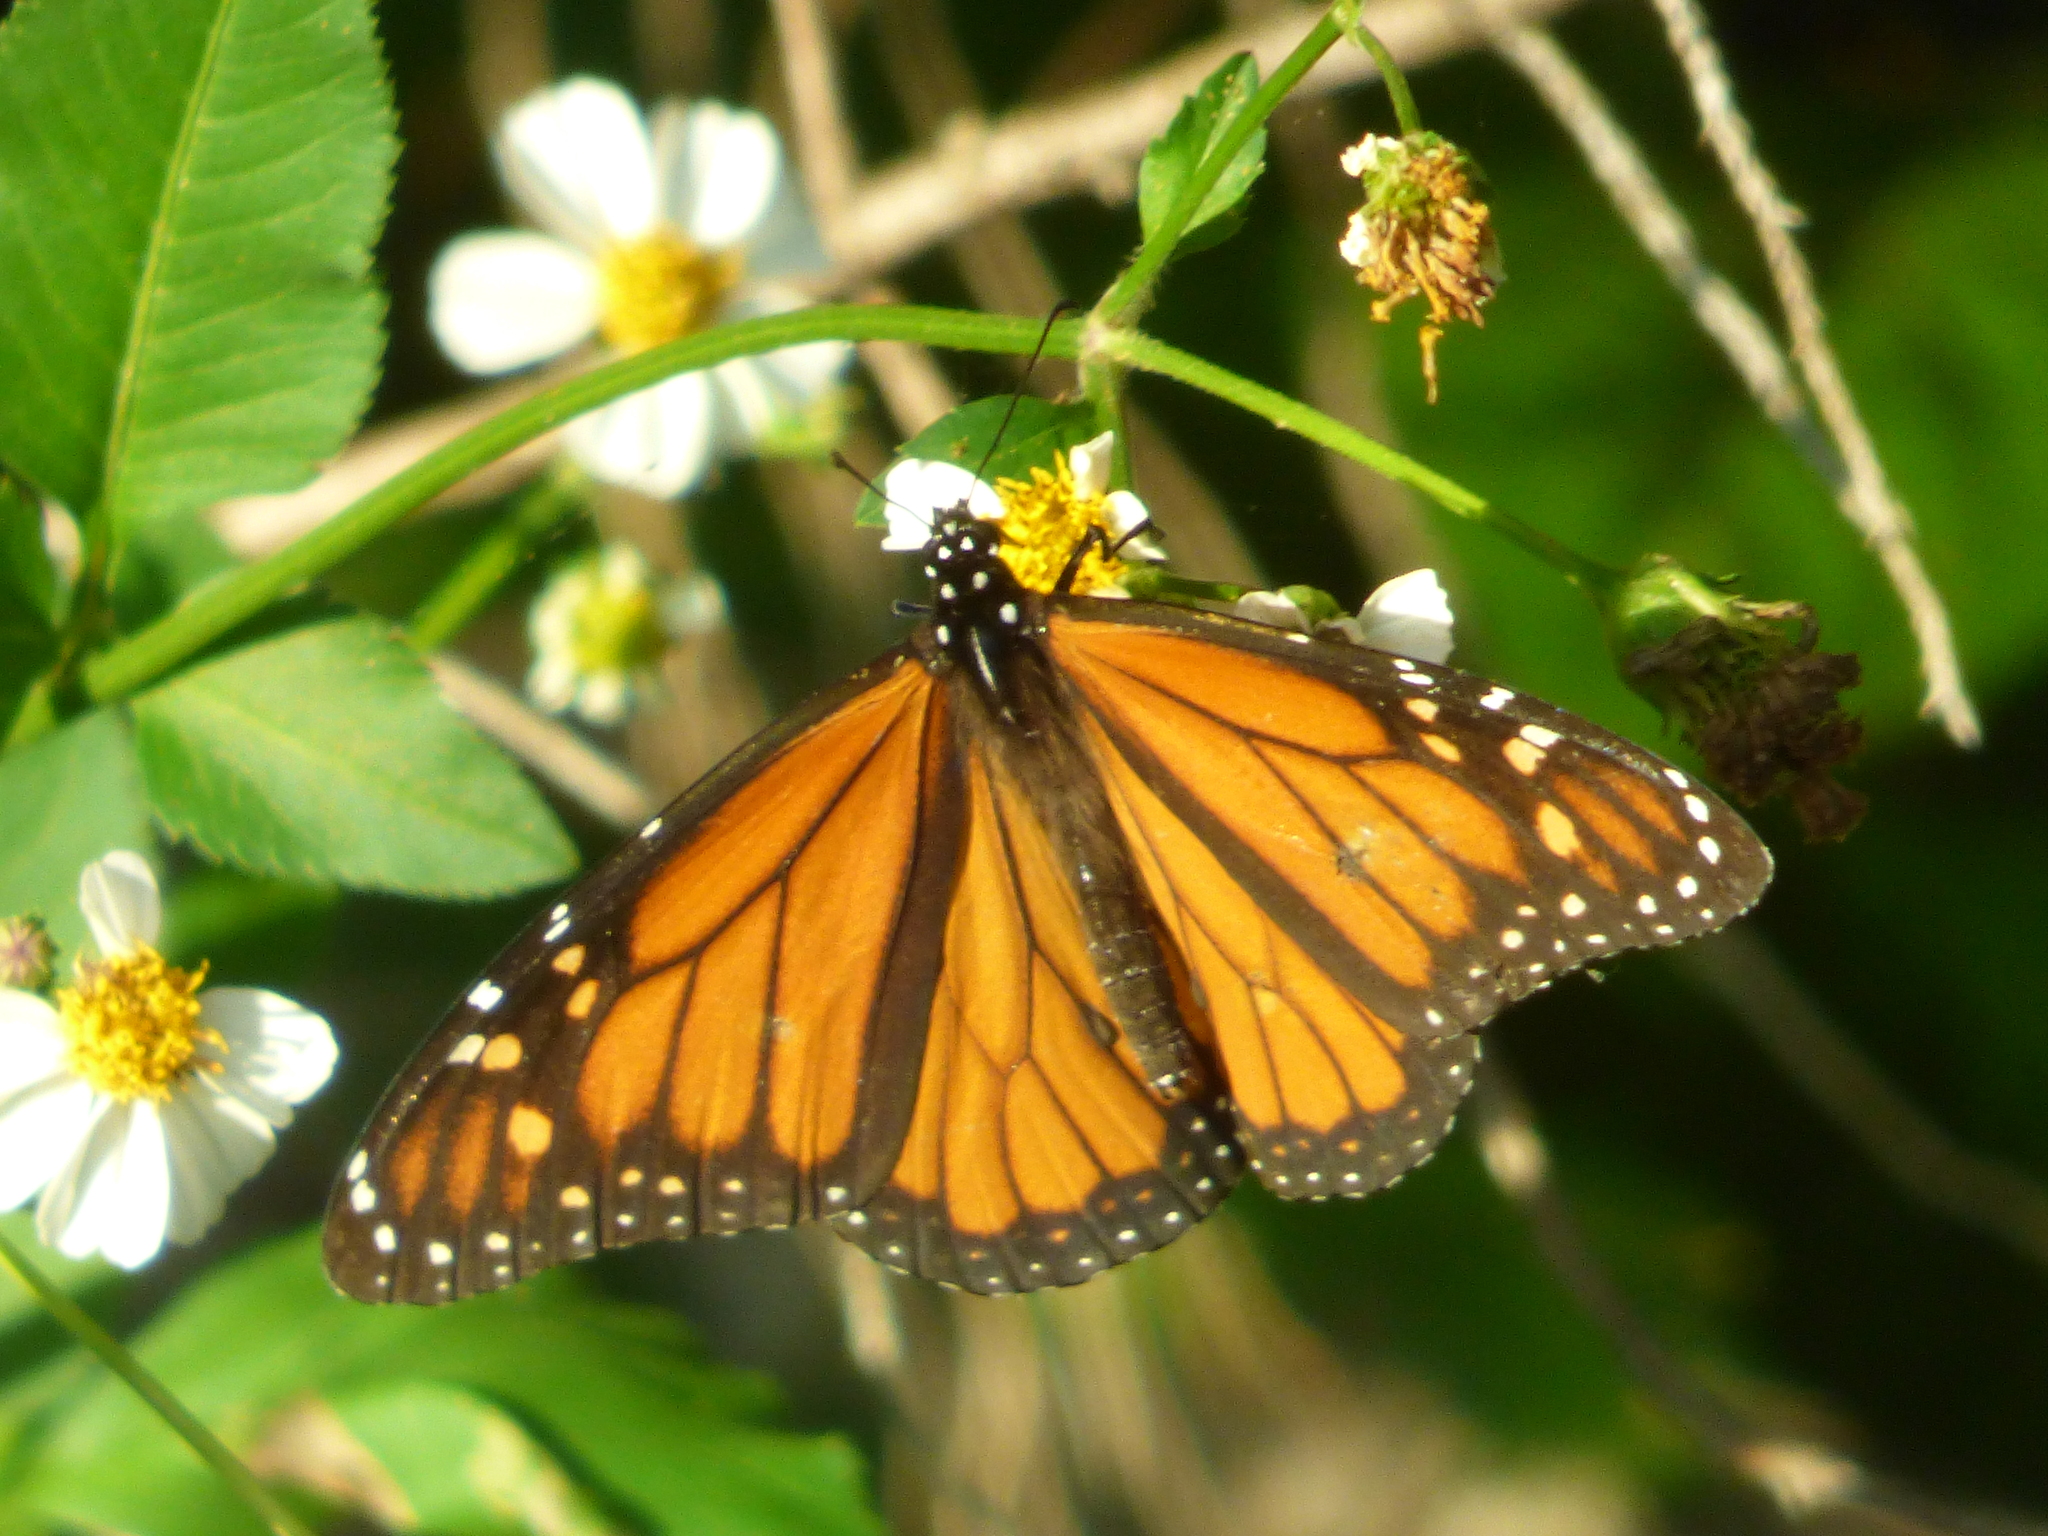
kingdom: Animalia
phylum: Arthropoda
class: Insecta
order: Lepidoptera
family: Nymphalidae
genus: Danaus
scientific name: Danaus plexippus
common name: Monarch
